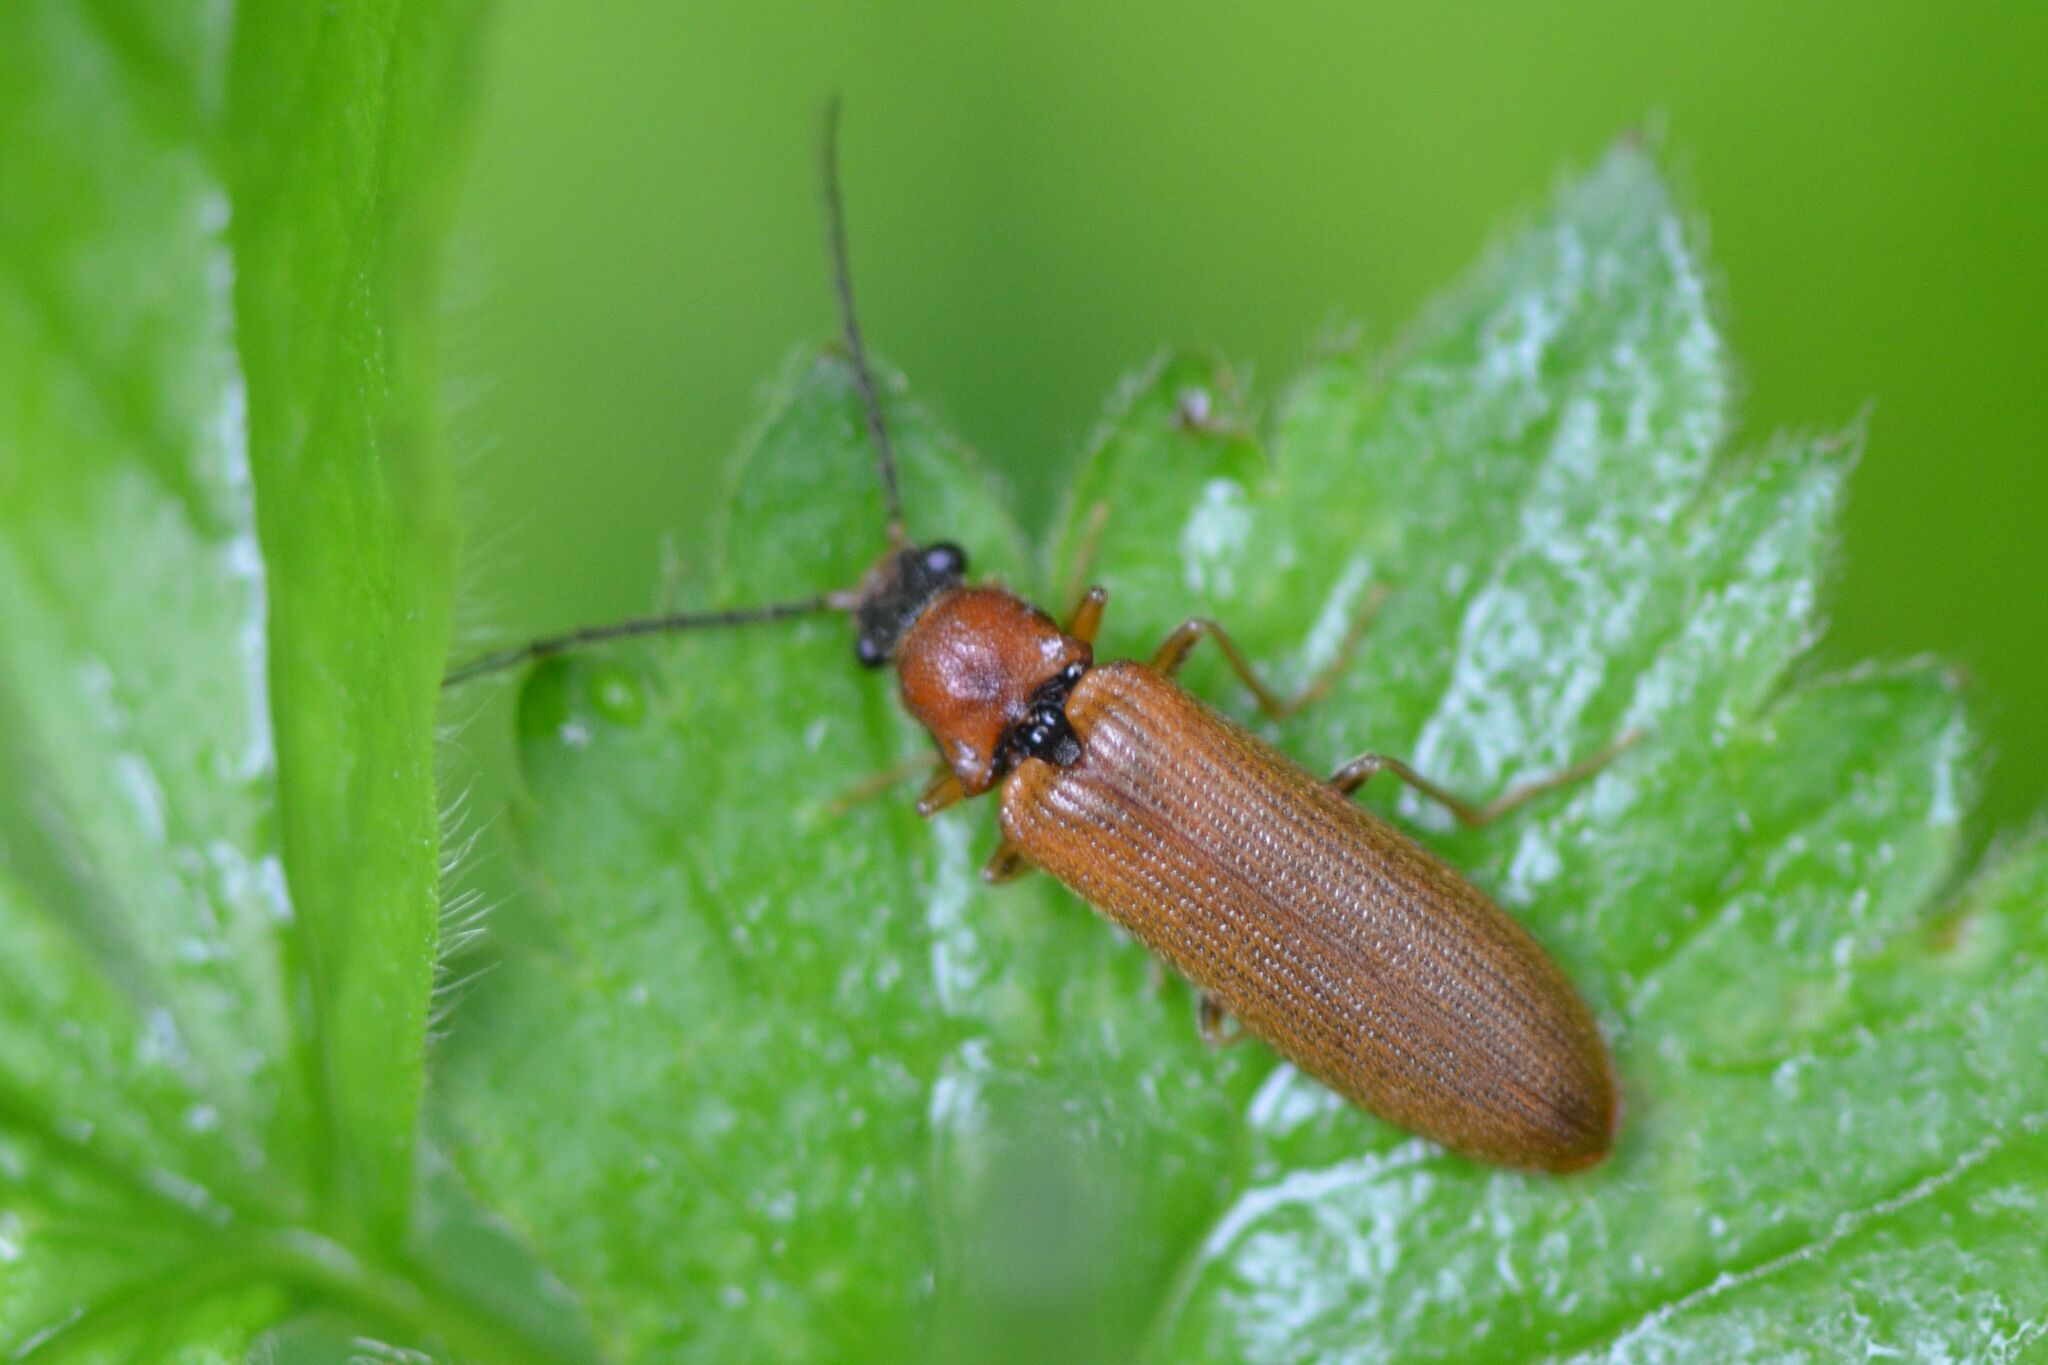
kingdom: Animalia
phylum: Arthropoda
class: Insecta
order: Coleoptera
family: Elateridae
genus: Denticollis
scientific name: Denticollis linearis
